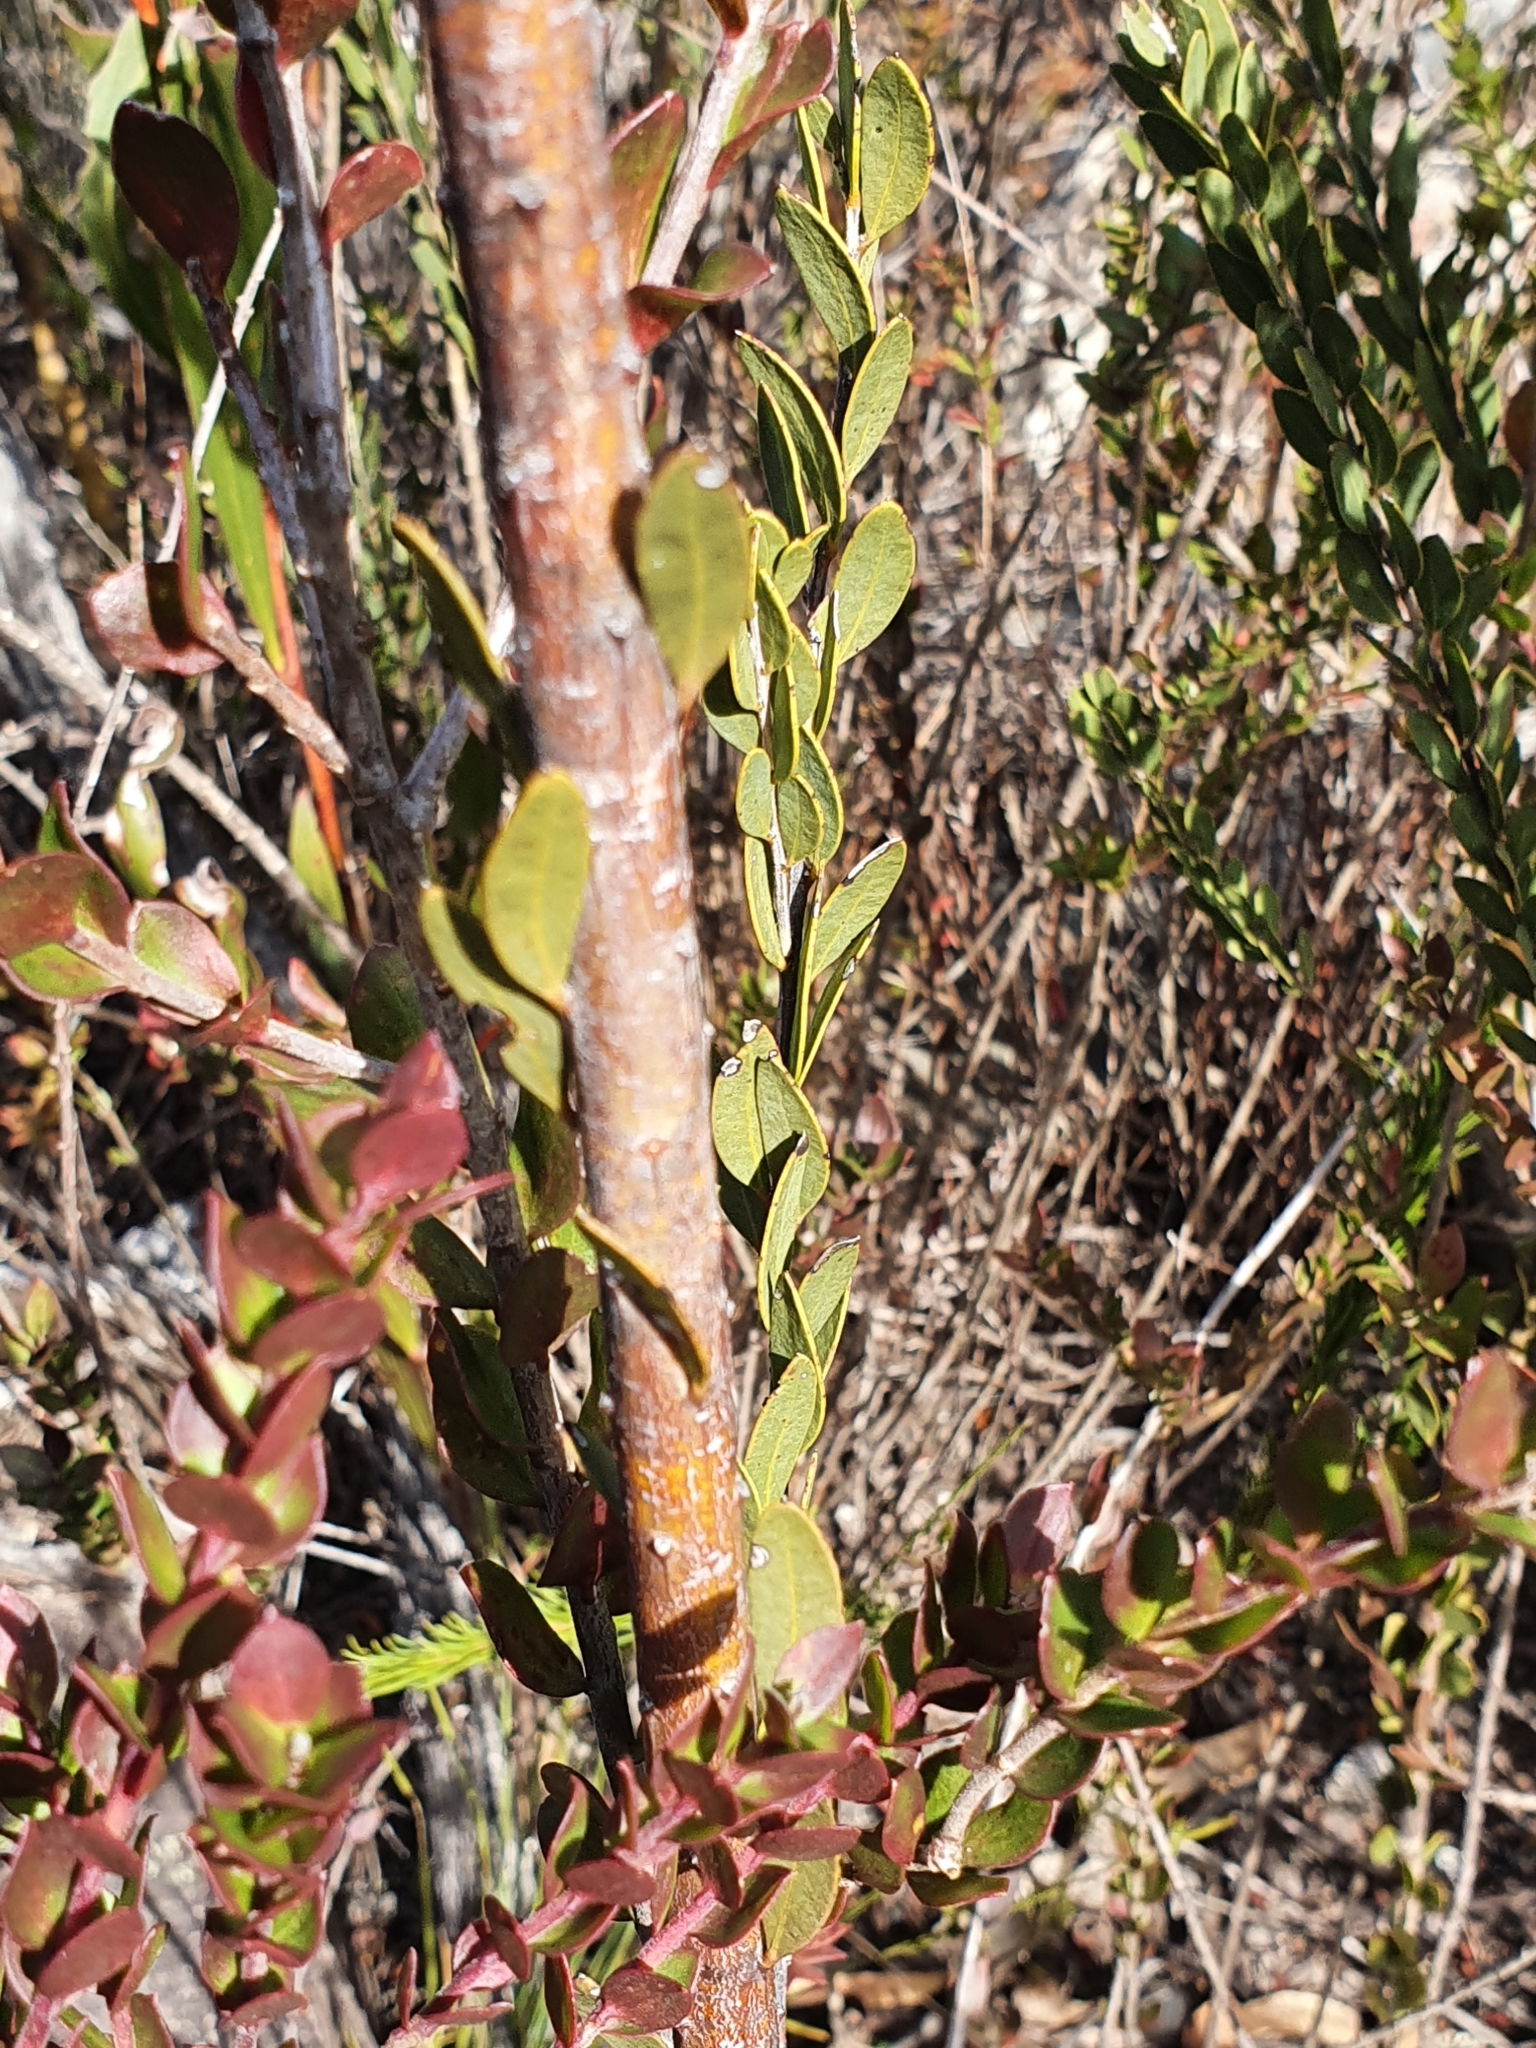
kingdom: Plantae
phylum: Tracheophyta
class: Magnoliopsida
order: Fabales
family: Fabaceae
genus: Acacia
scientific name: Acacia kybeanensis
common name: Kybean wattle
